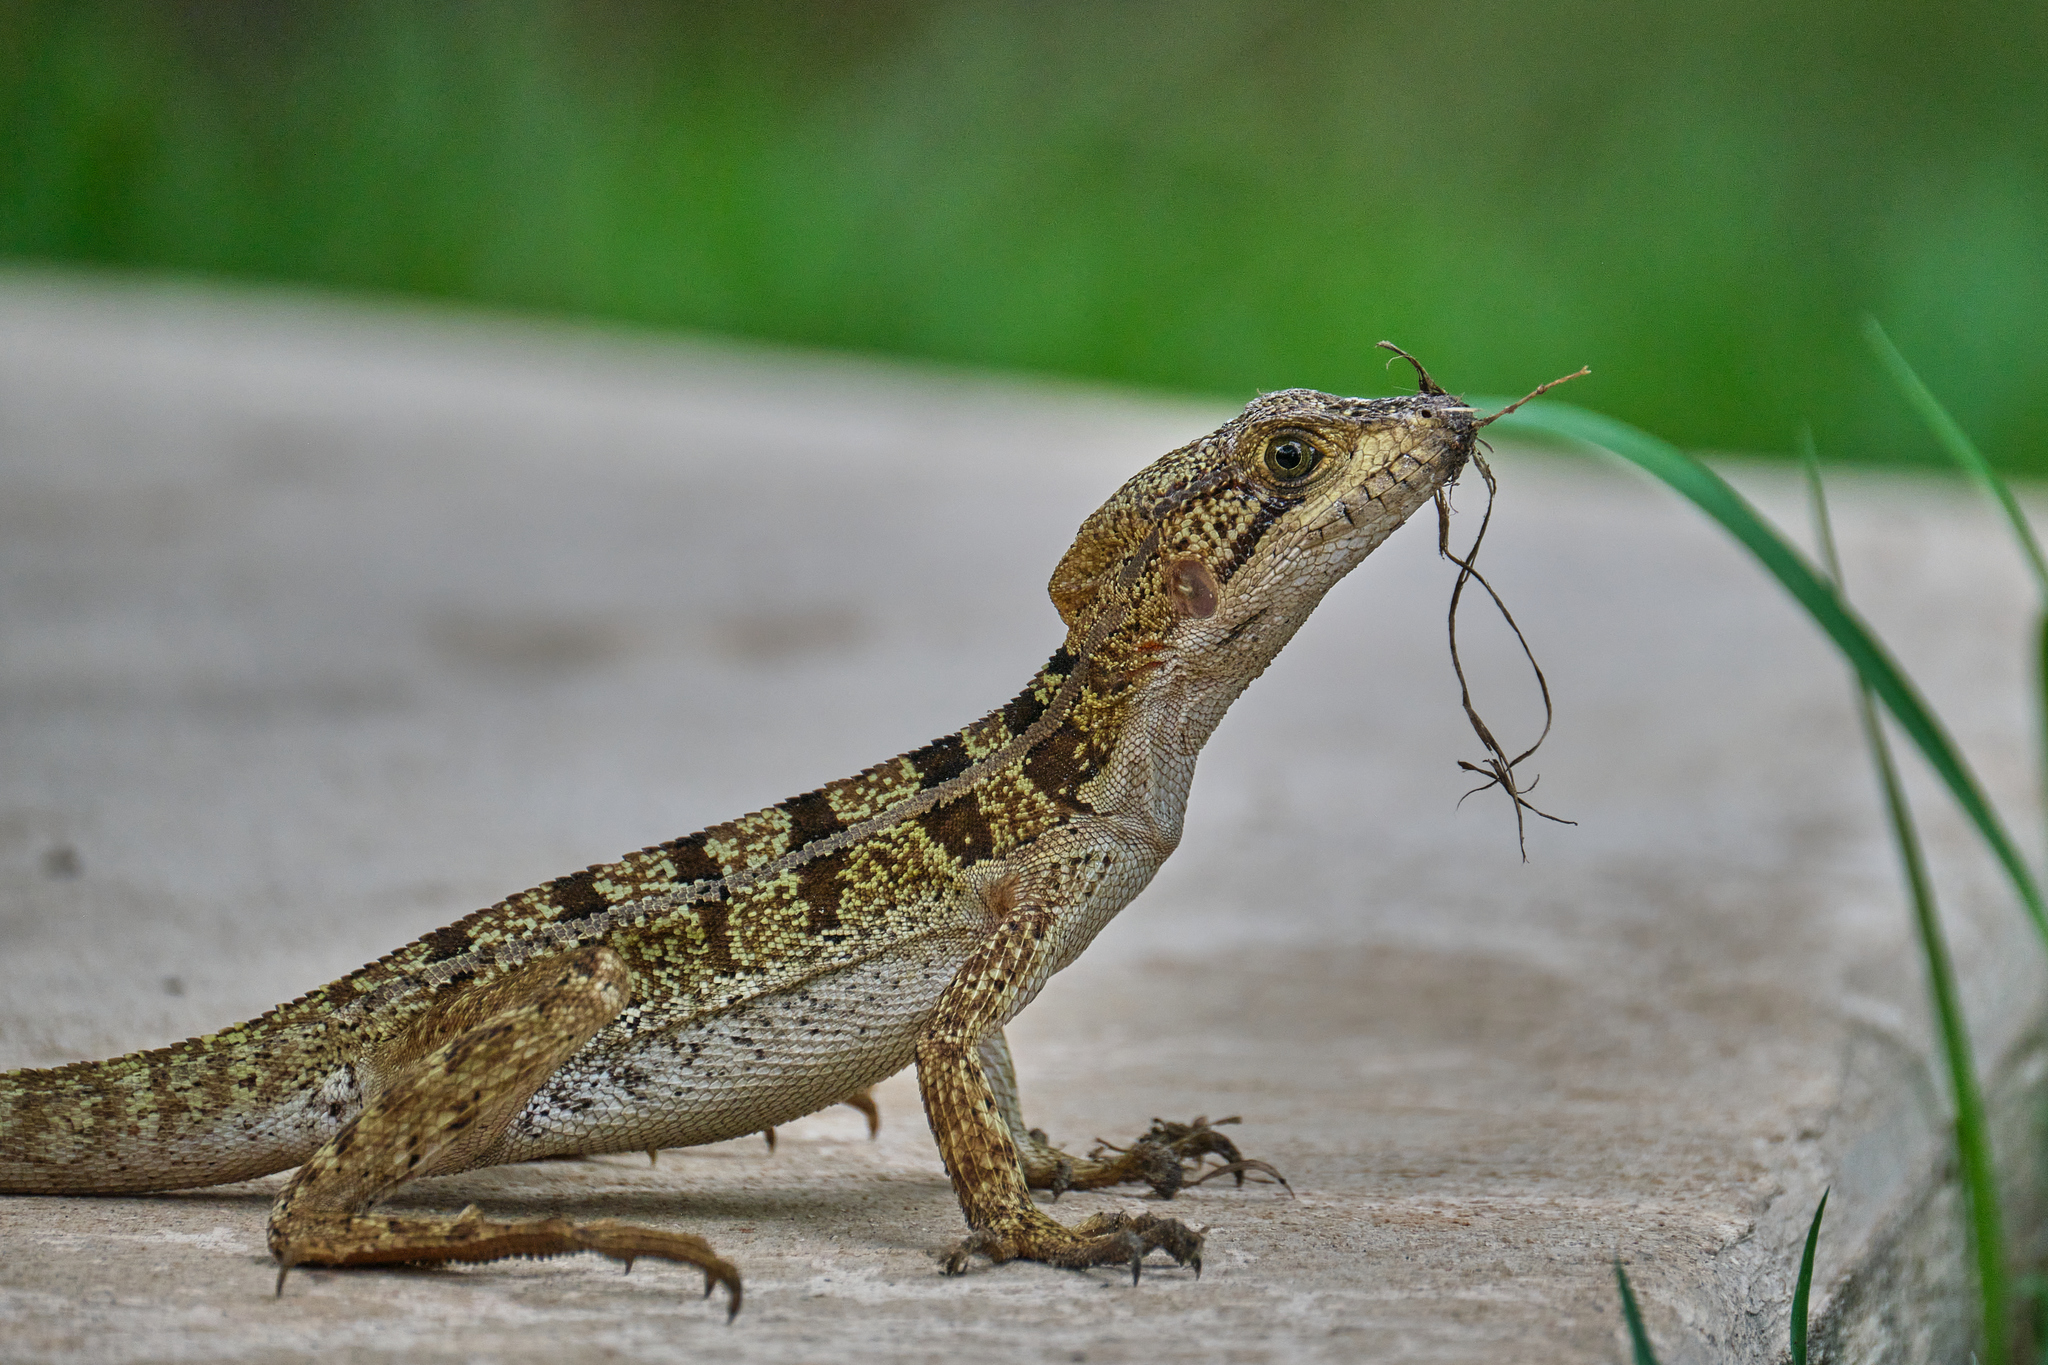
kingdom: Animalia
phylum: Chordata
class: Squamata
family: Corytophanidae
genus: Basiliscus
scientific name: Basiliscus vittatus
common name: Brown basilisk
